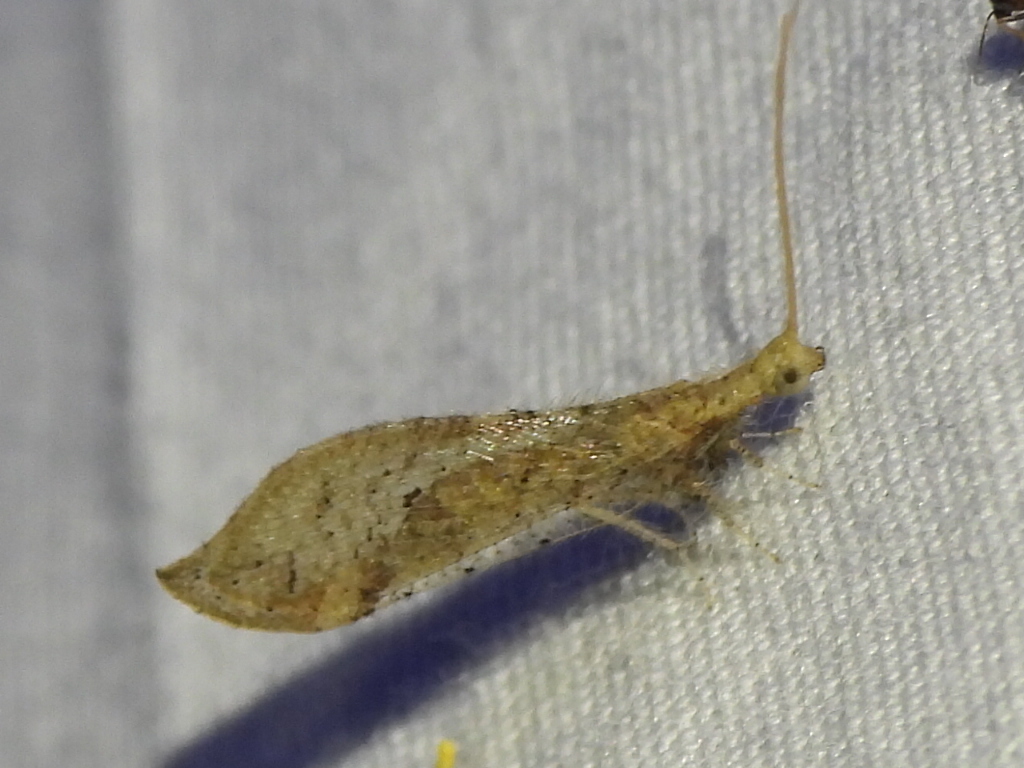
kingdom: Animalia
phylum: Arthropoda
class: Insecta
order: Neuroptera
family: Berothidae
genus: Lomamyia
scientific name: Lomamyia squamosa
